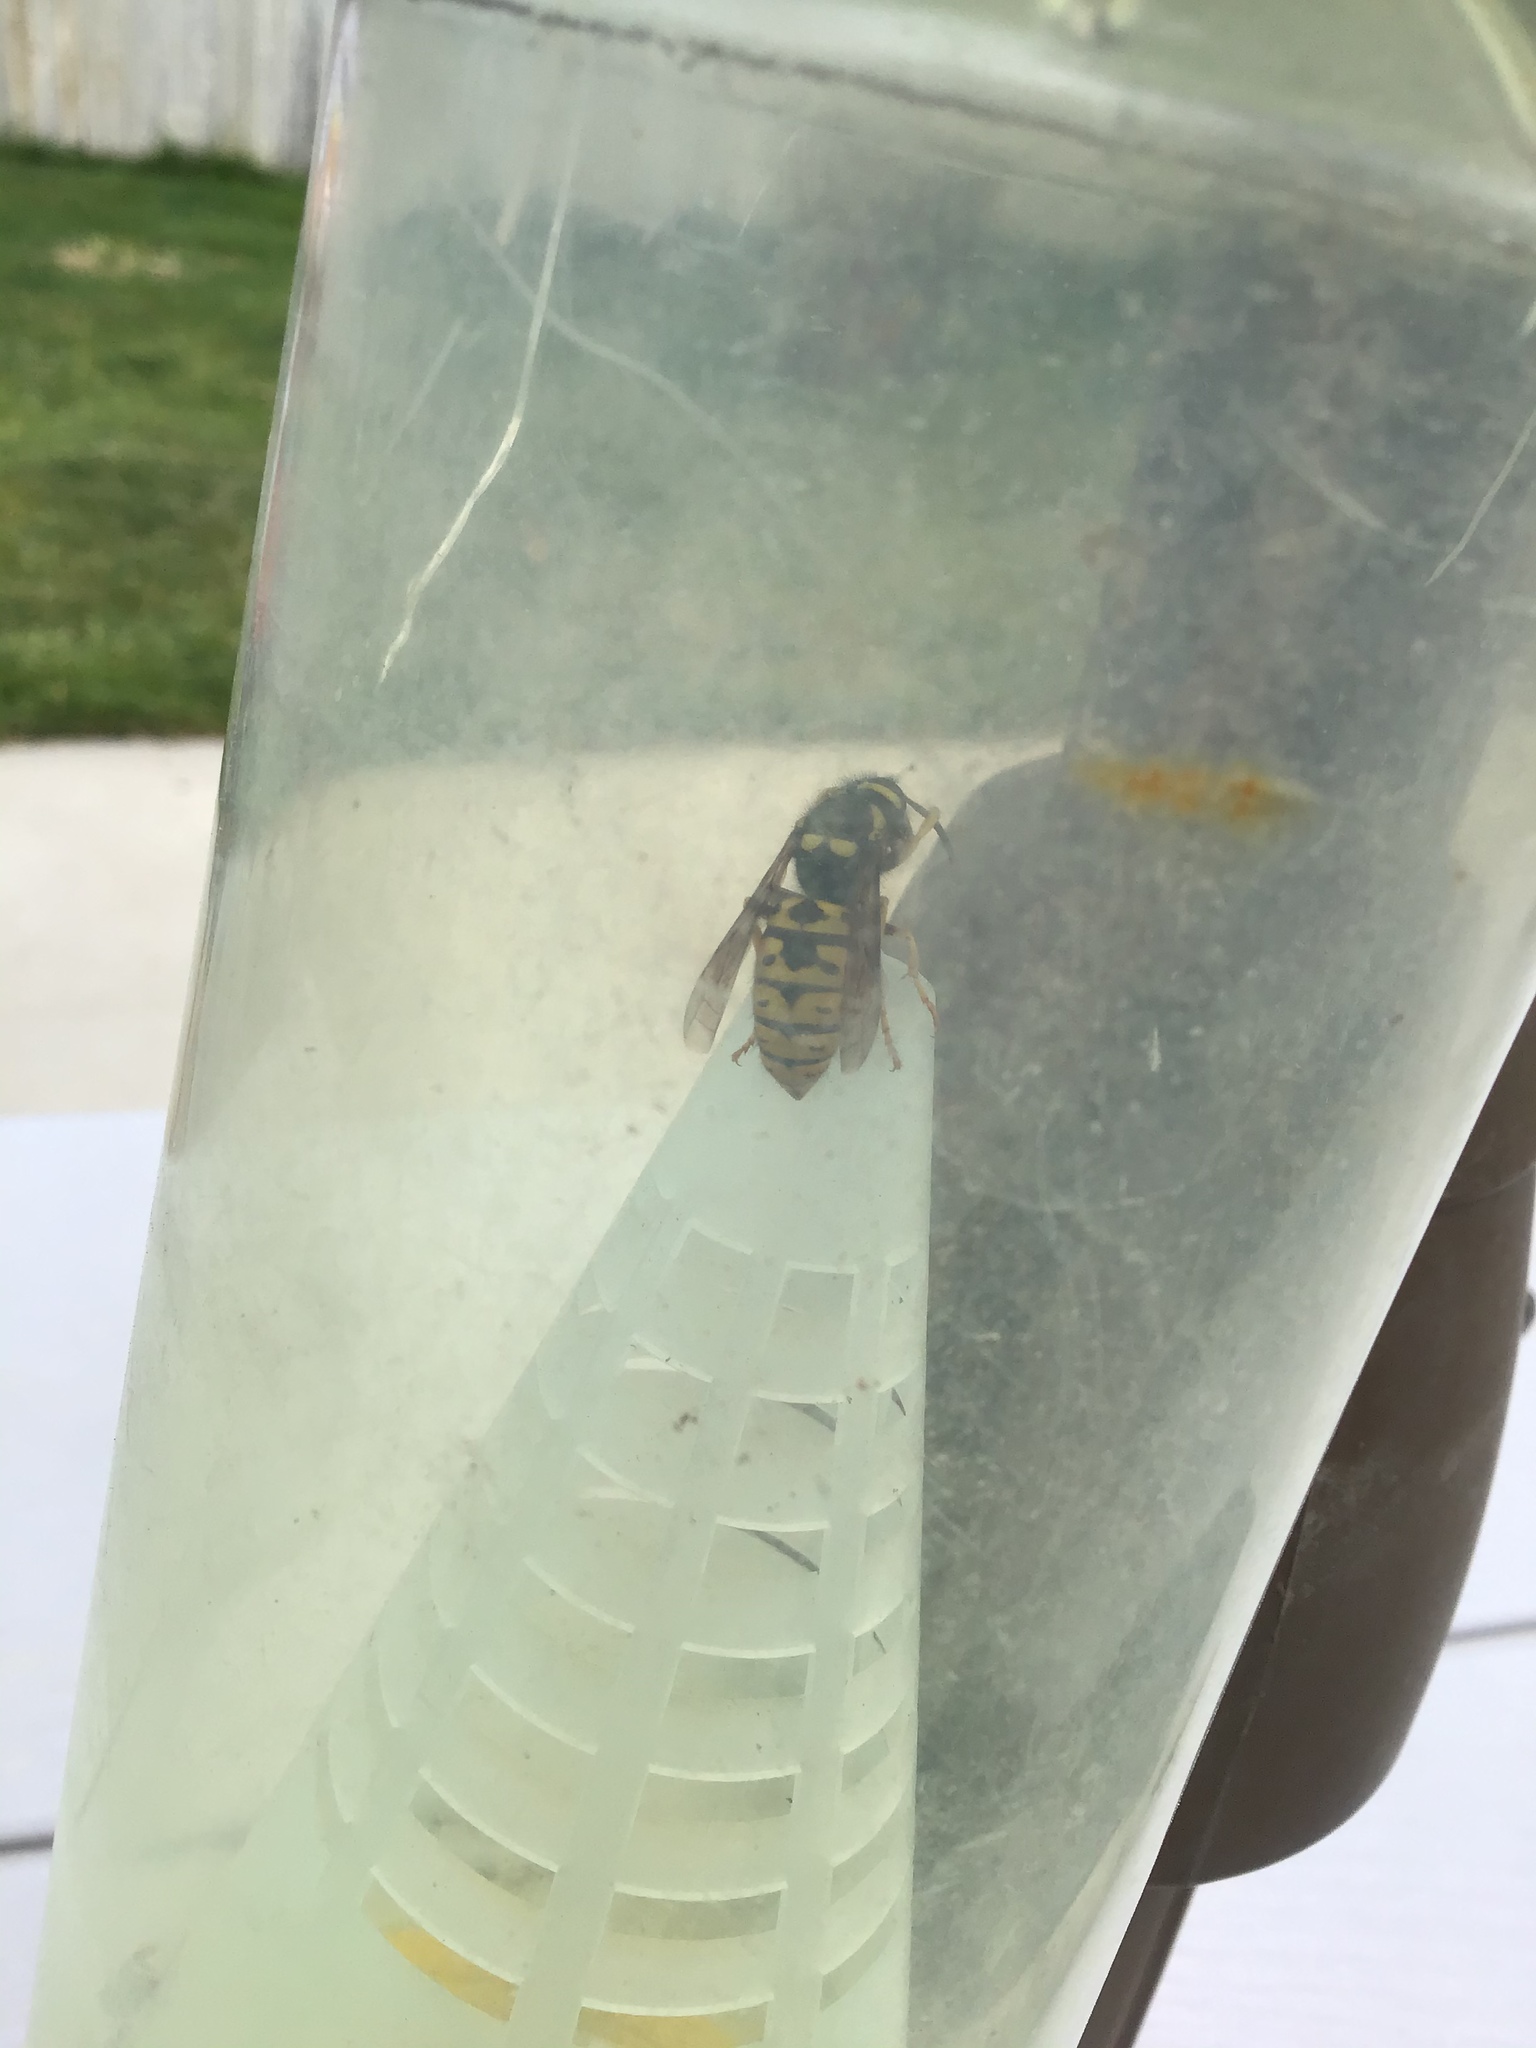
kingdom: Animalia
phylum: Arthropoda
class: Insecta
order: Hymenoptera
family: Vespidae
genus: Vespula
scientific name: Vespula atropilosa
